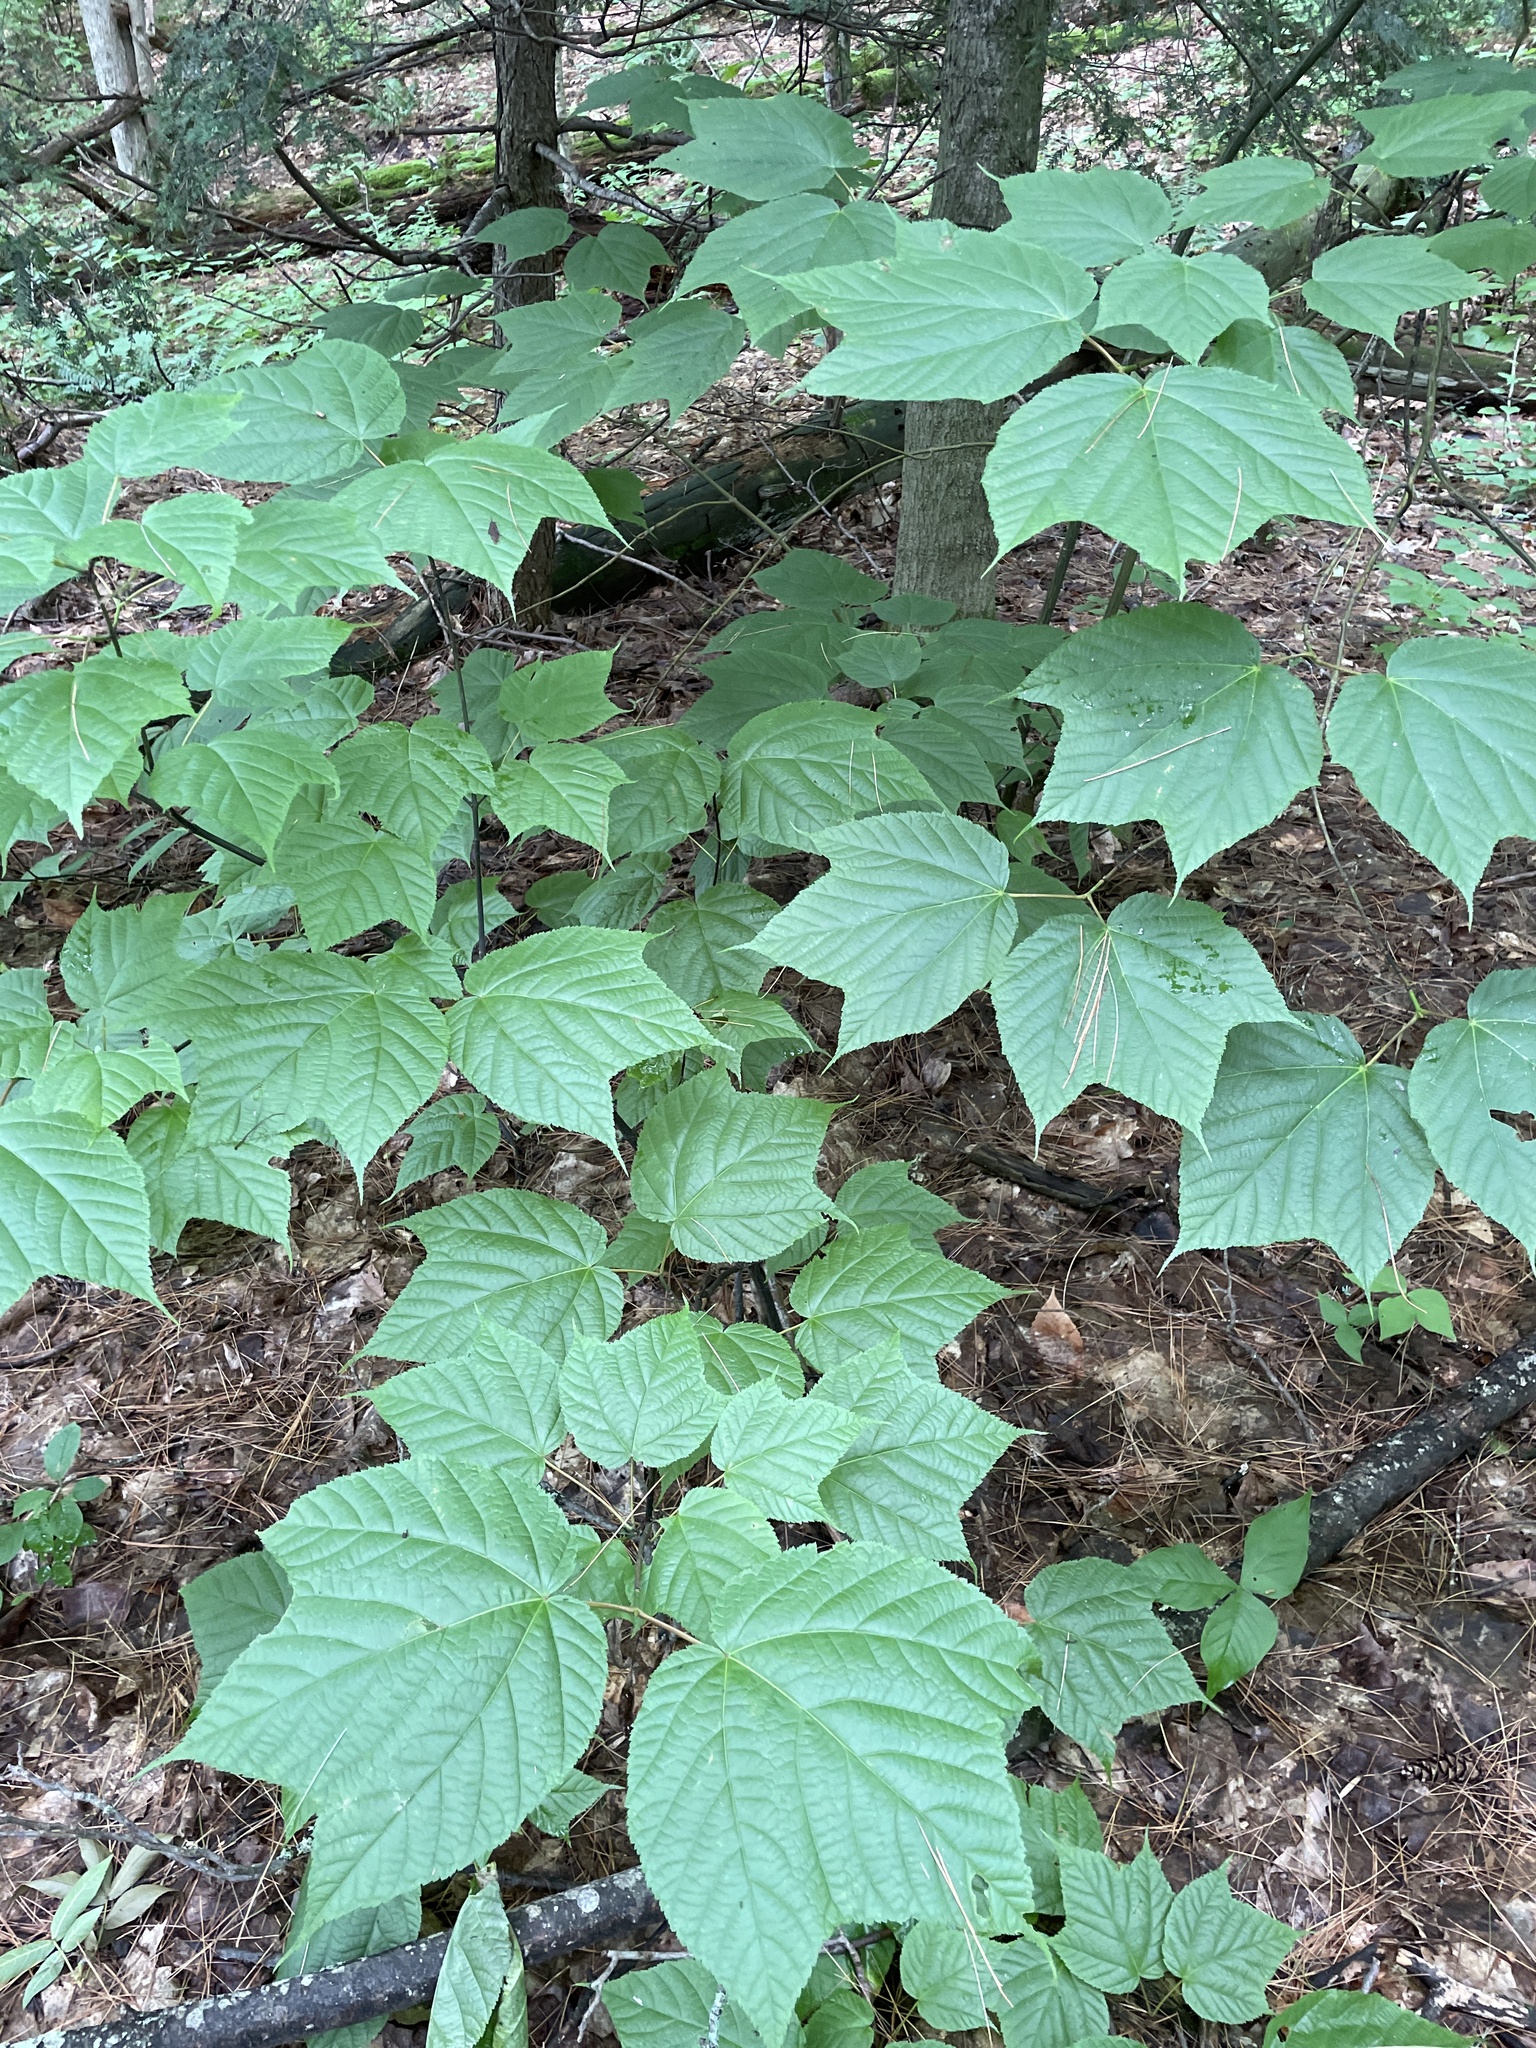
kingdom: Plantae
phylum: Tracheophyta
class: Magnoliopsida
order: Sapindales
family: Sapindaceae
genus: Acer
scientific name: Acer pensylvanicum
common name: Moosewood
